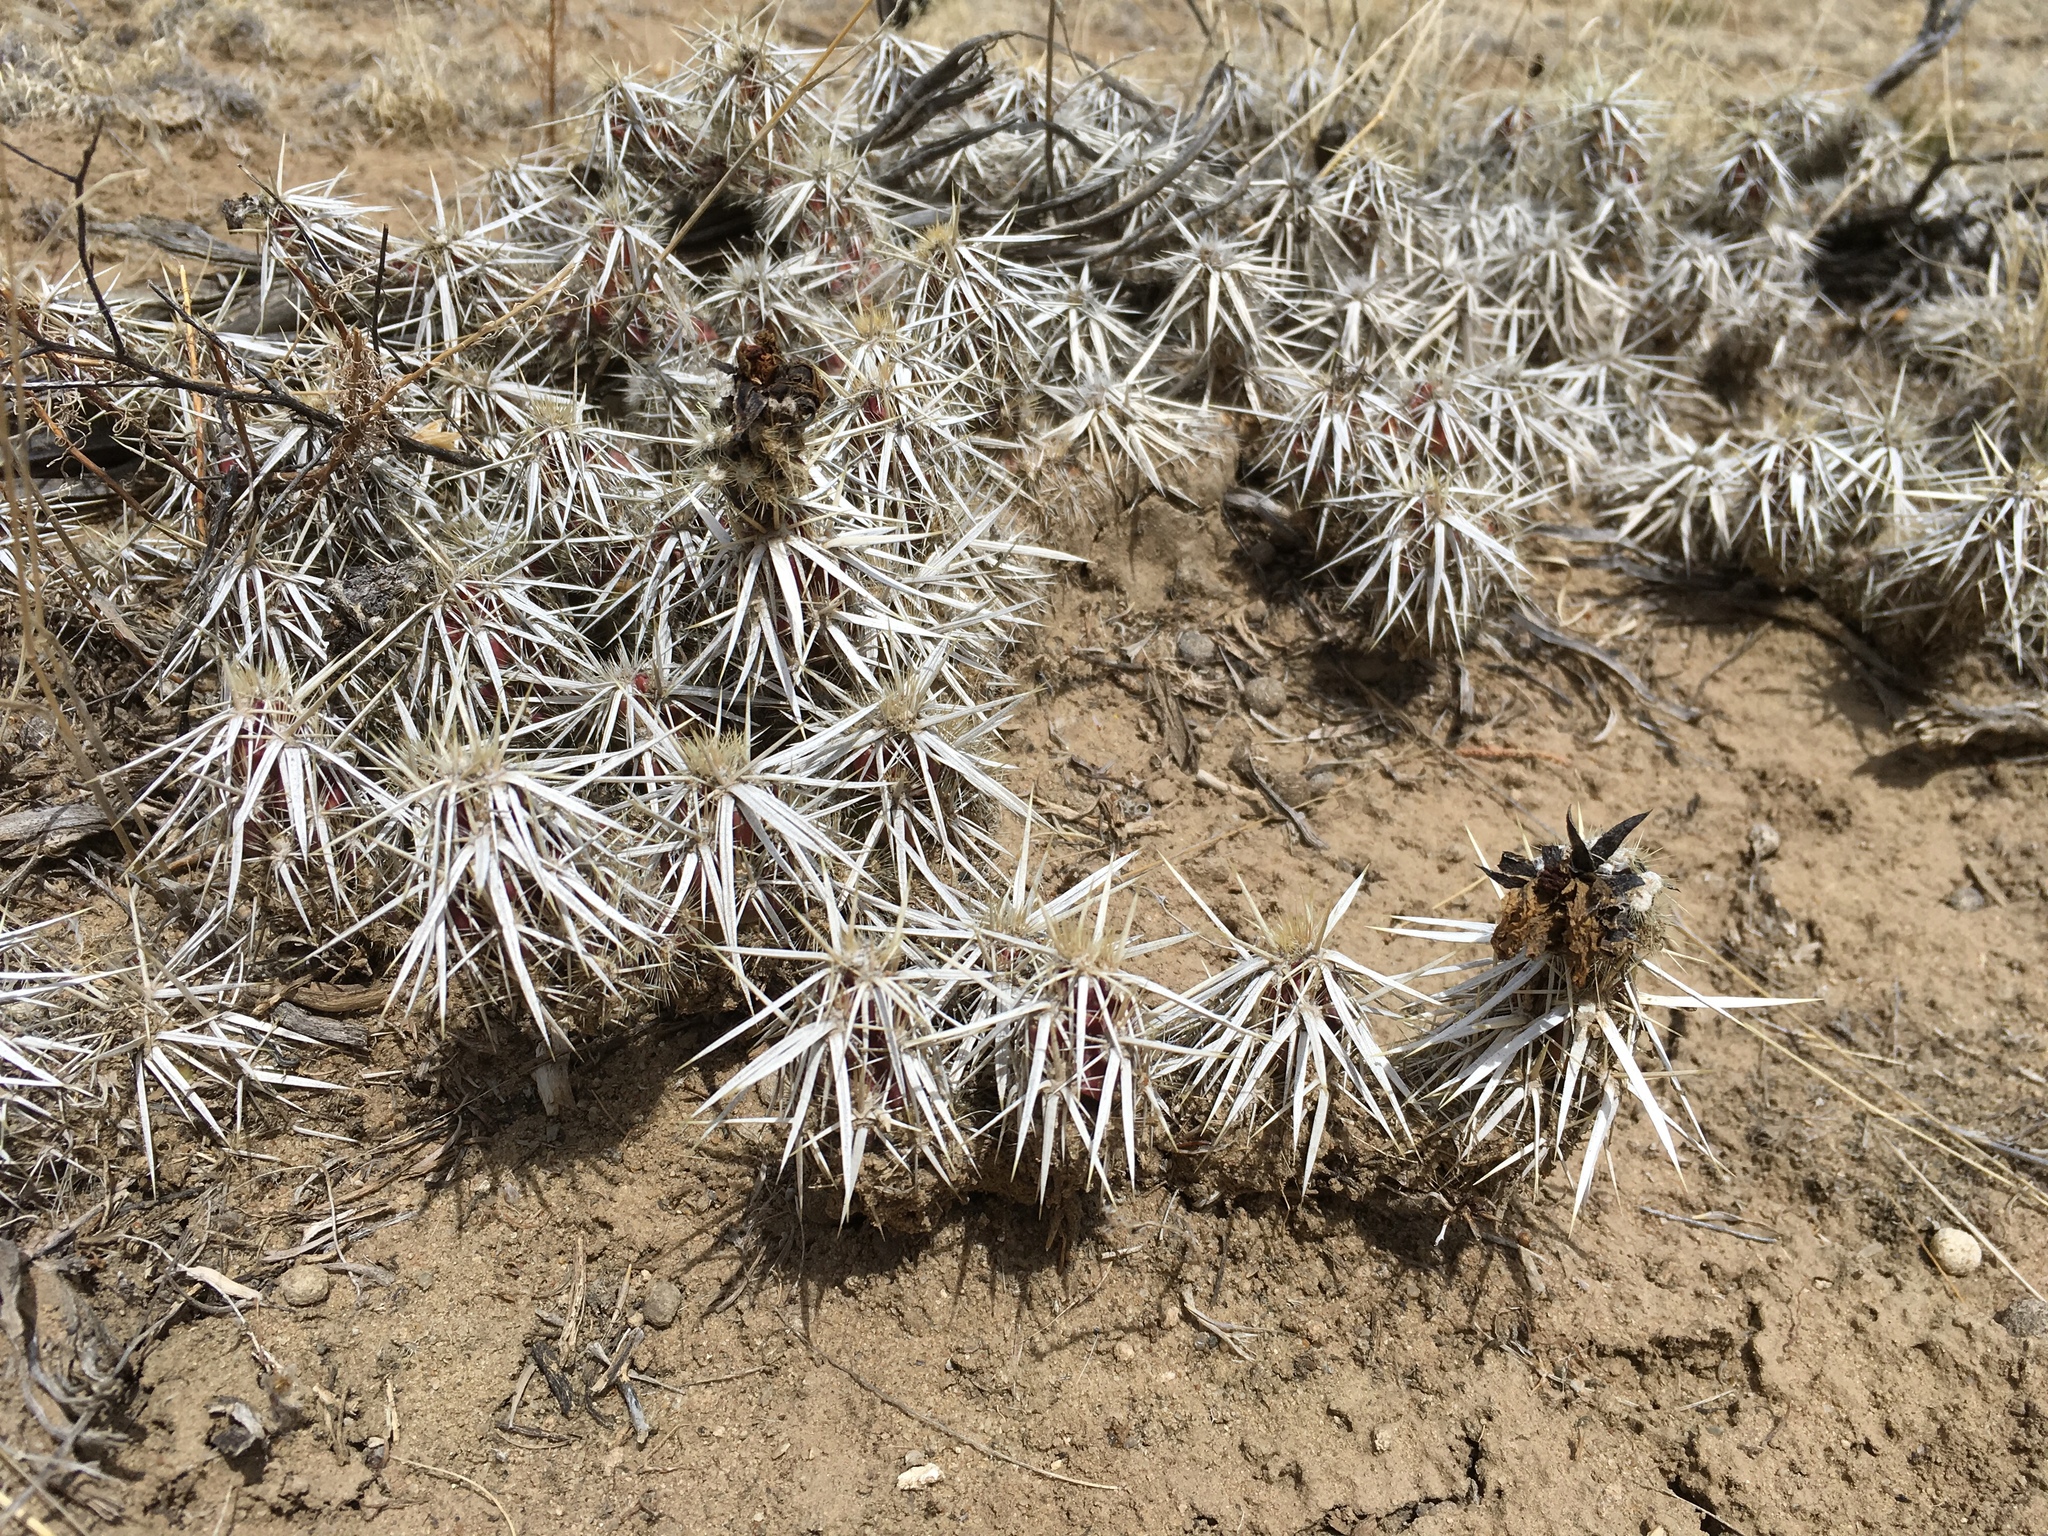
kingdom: Plantae
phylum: Tracheophyta
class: Magnoliopsida
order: Caryophyllales
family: Cactaceae
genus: Grusonia
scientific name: Grusonia clavata
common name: Club cholla
